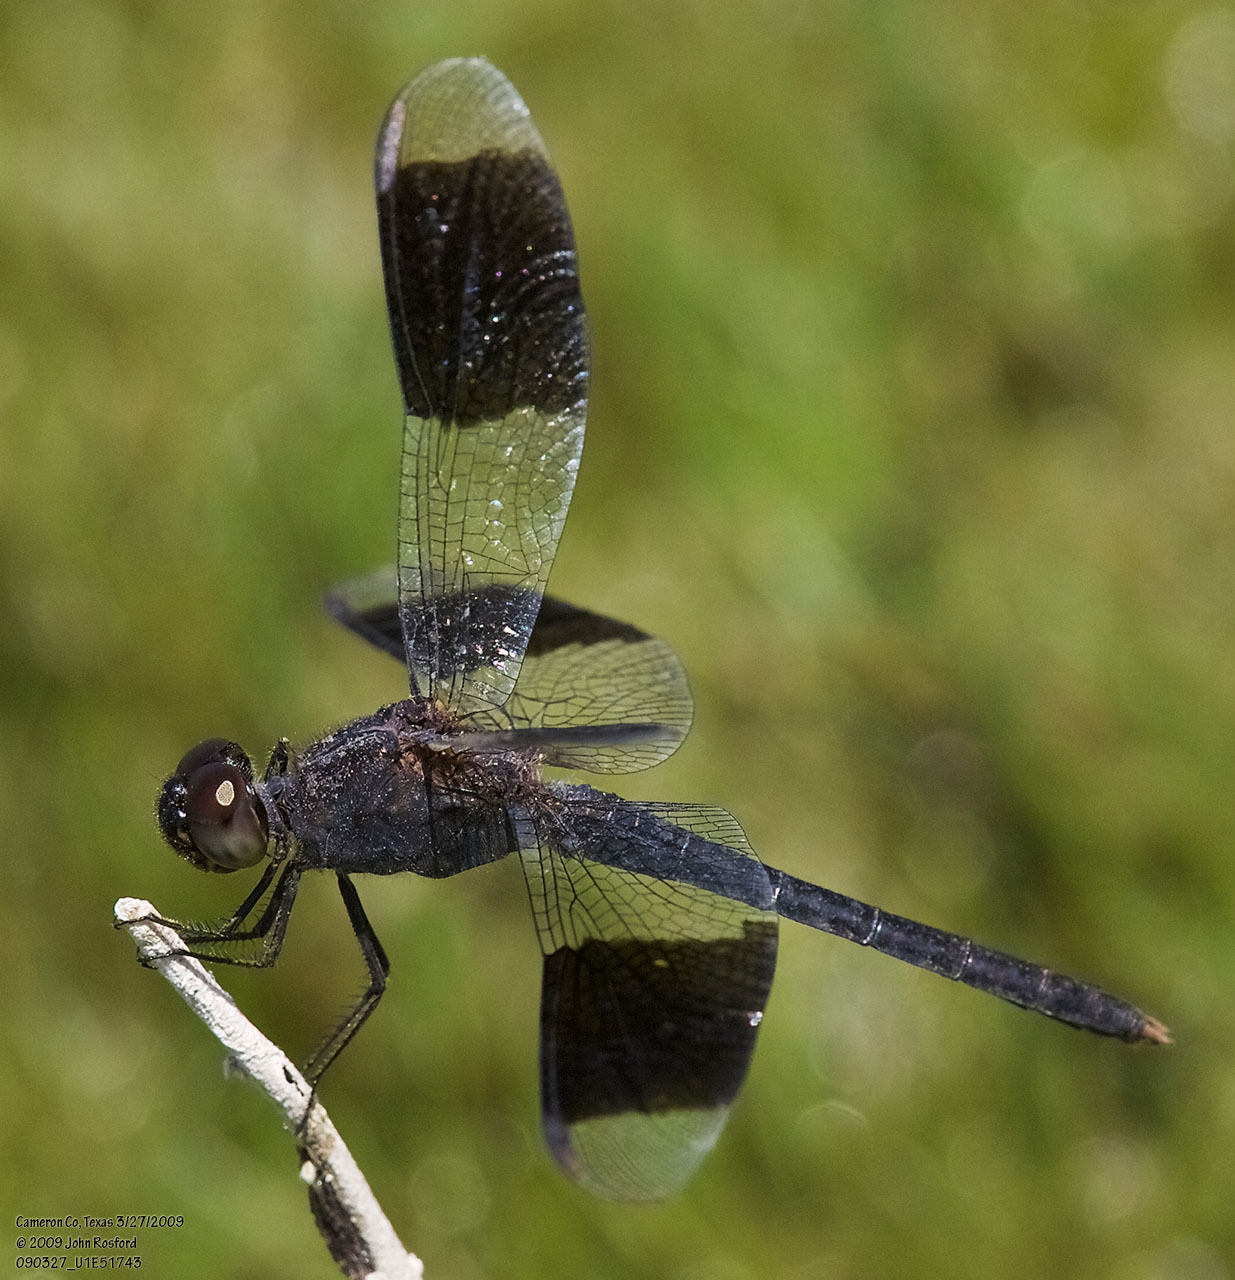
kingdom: Animalia
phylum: Arthropoda
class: Insecta
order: Odonata
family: Libellulidae
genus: Erythrodiplax
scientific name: Erythrodiplax umbrata
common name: Band-winged dragonlet
